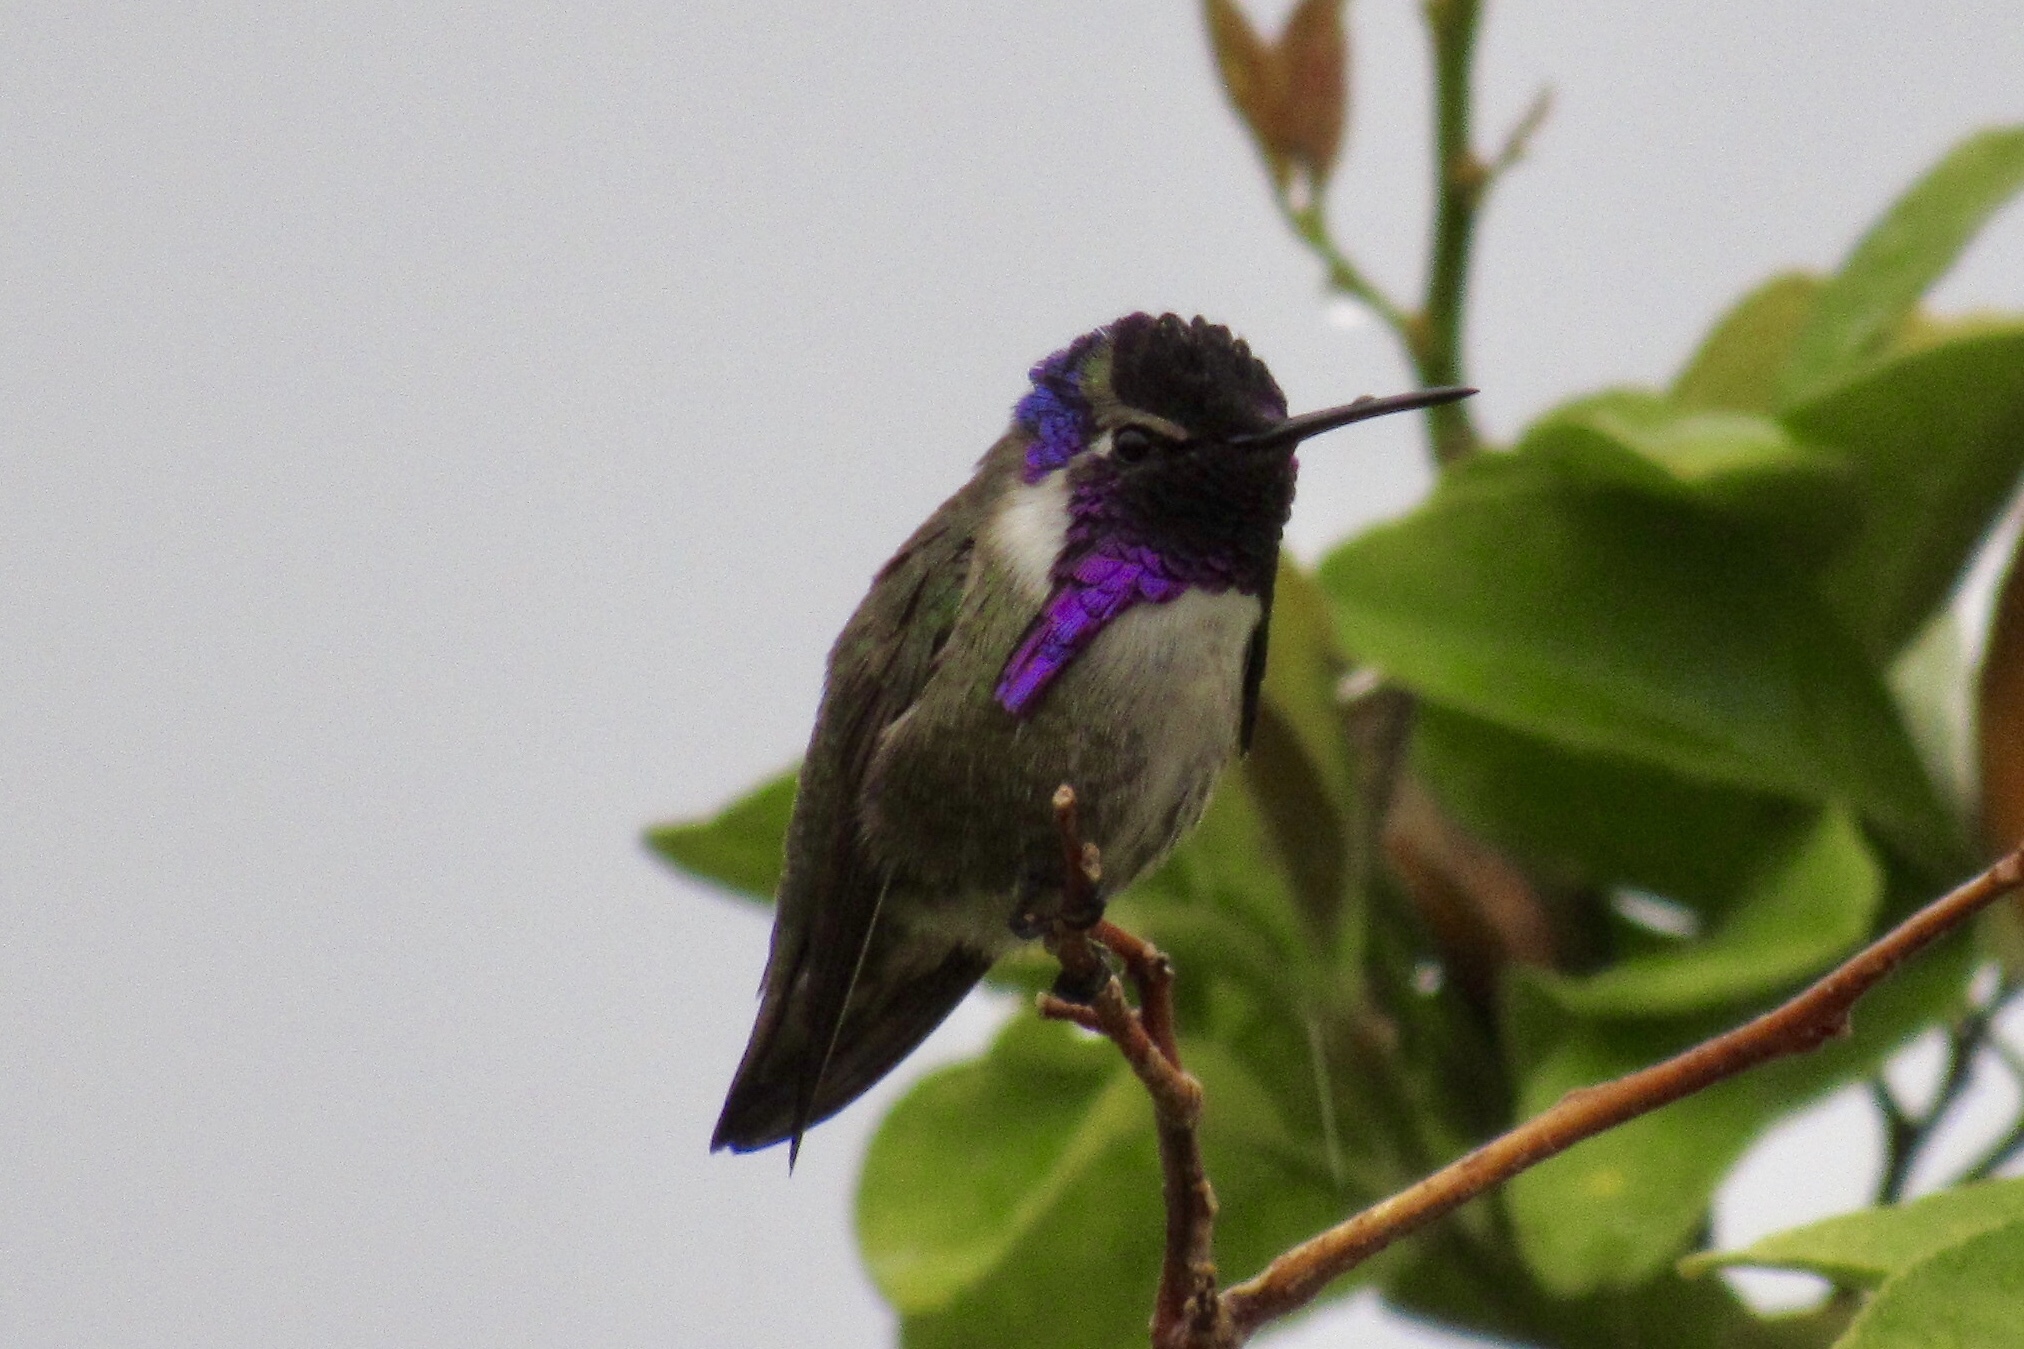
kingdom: Animalia
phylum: Chordata
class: Aves
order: Apodiformes
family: Trochilidae
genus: Calypte
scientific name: Calypte costae
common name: Costa's hummingbird
